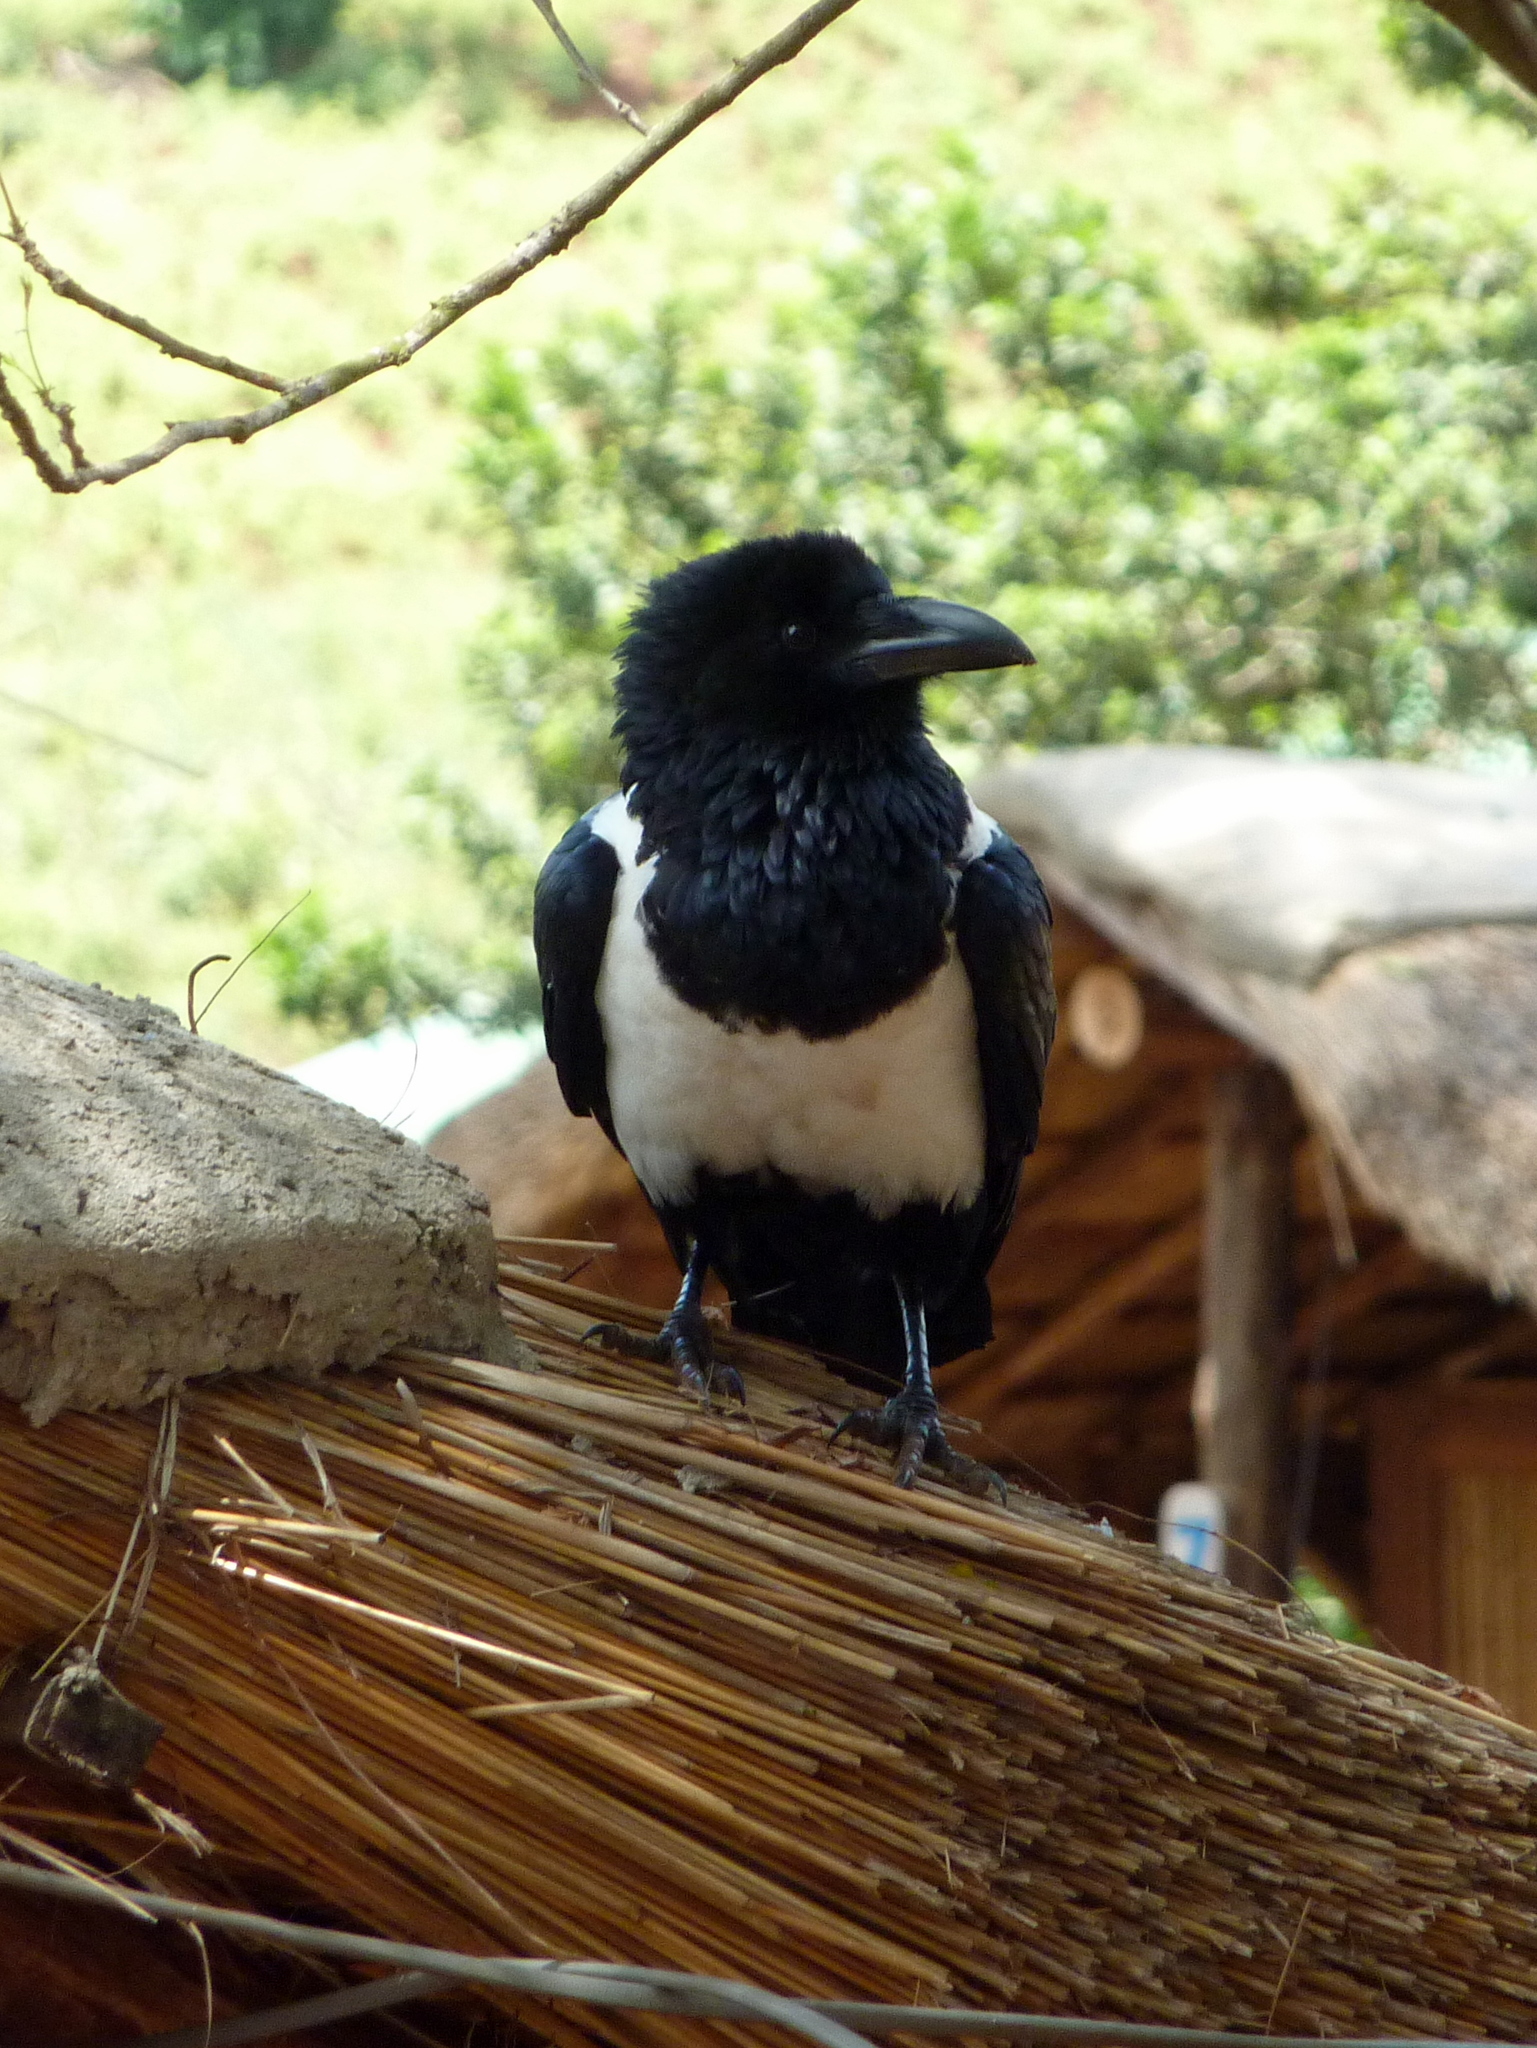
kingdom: Animalia
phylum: Chordata
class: Aves
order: Passeriformes
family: Corvidae
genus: Corvus
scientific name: Corvus albus
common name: Pied crow
